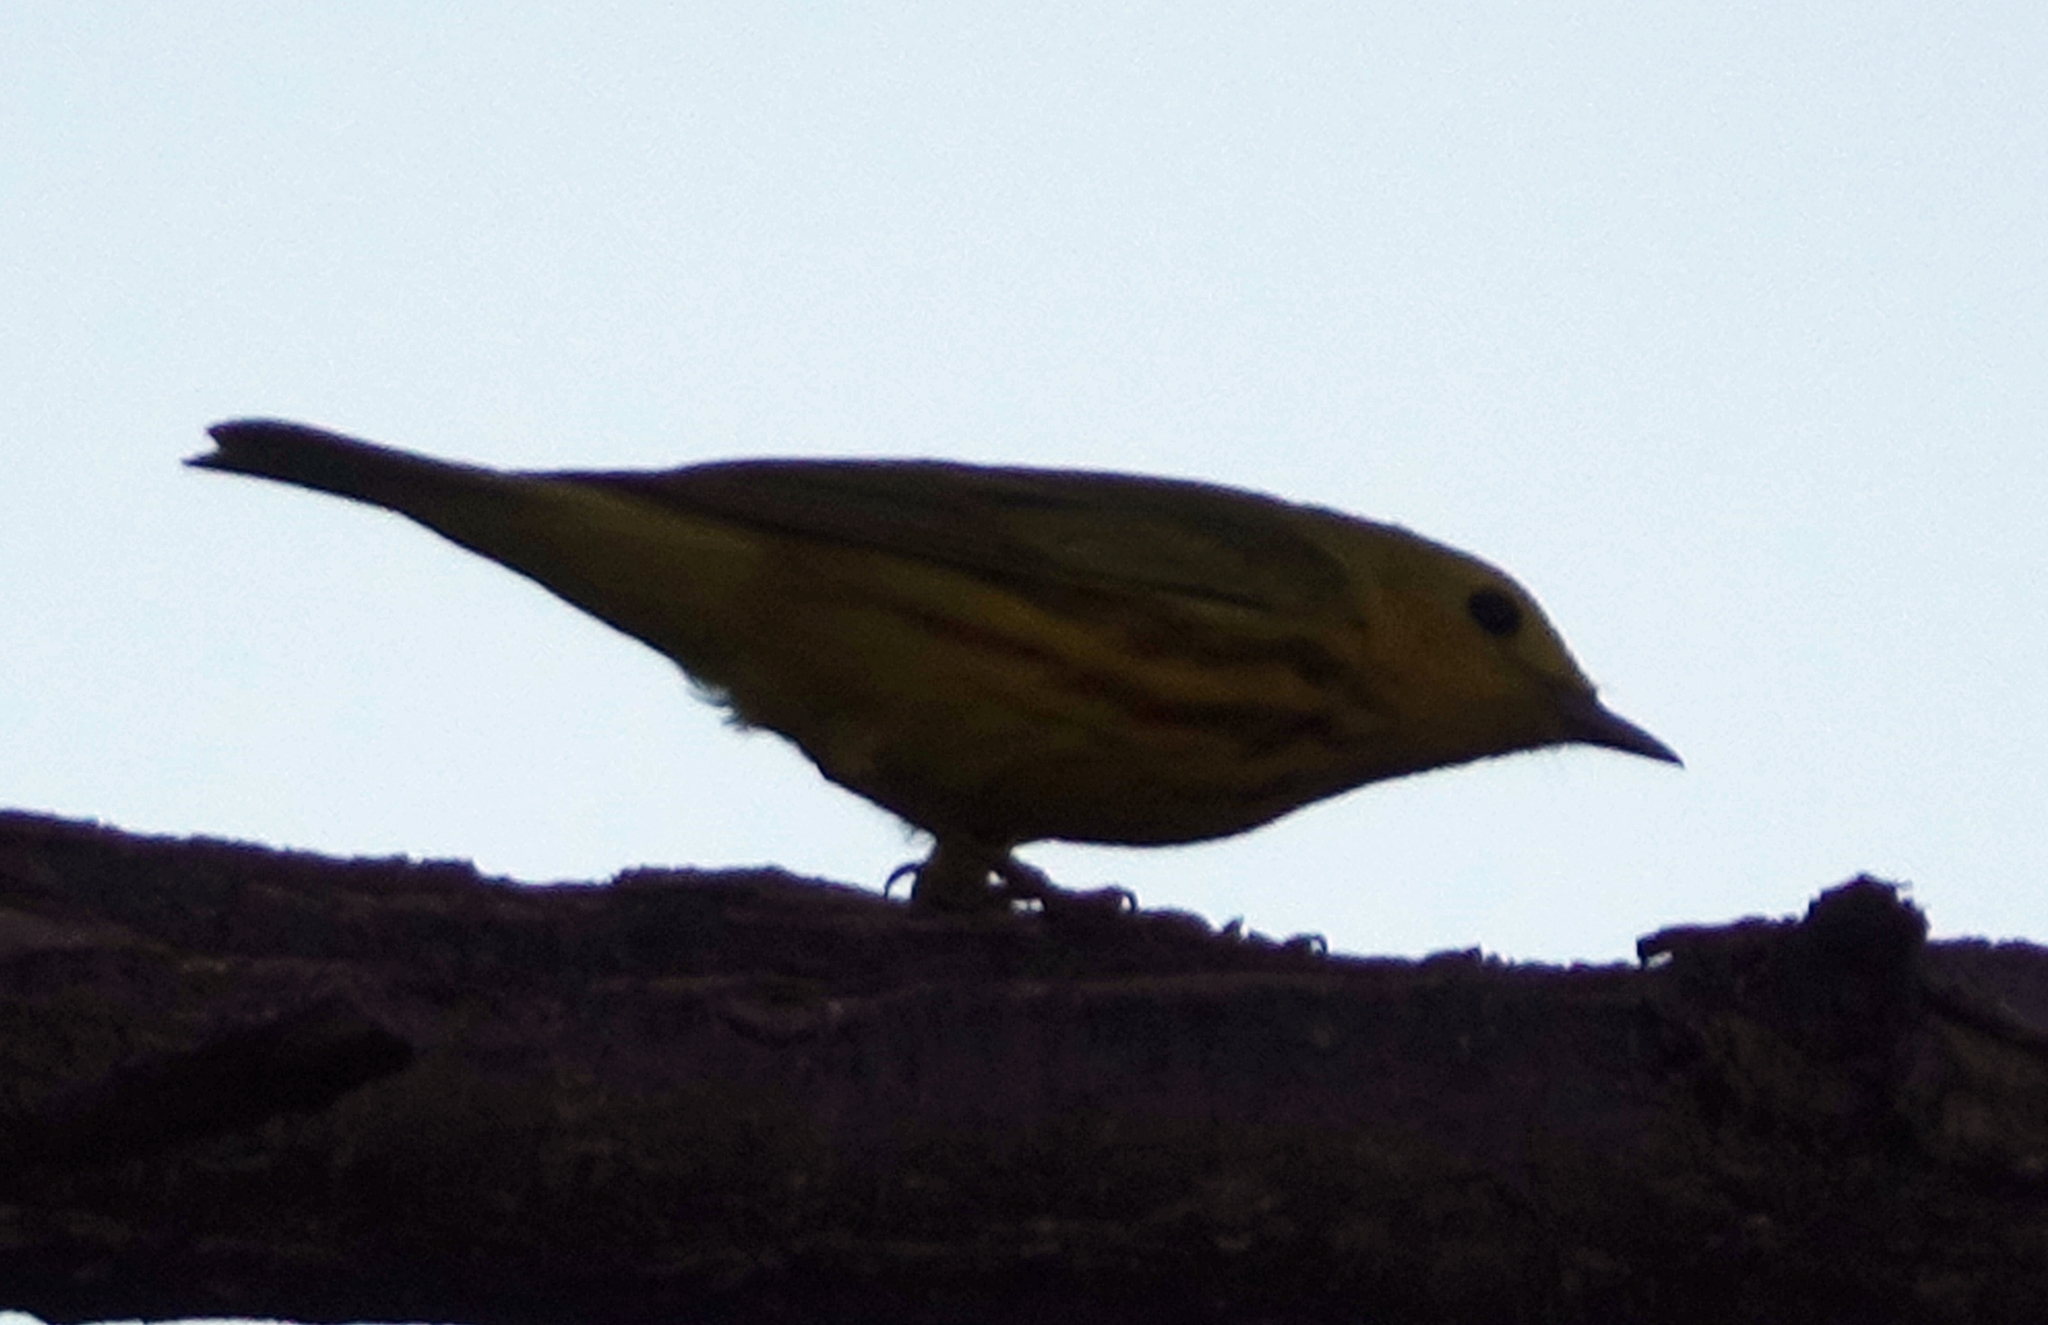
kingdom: Animalia
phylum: Chordata
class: Aves
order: Passeriformes
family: Parulidae
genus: Setophaga
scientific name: Setophaga petechia
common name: Yellow warbler
